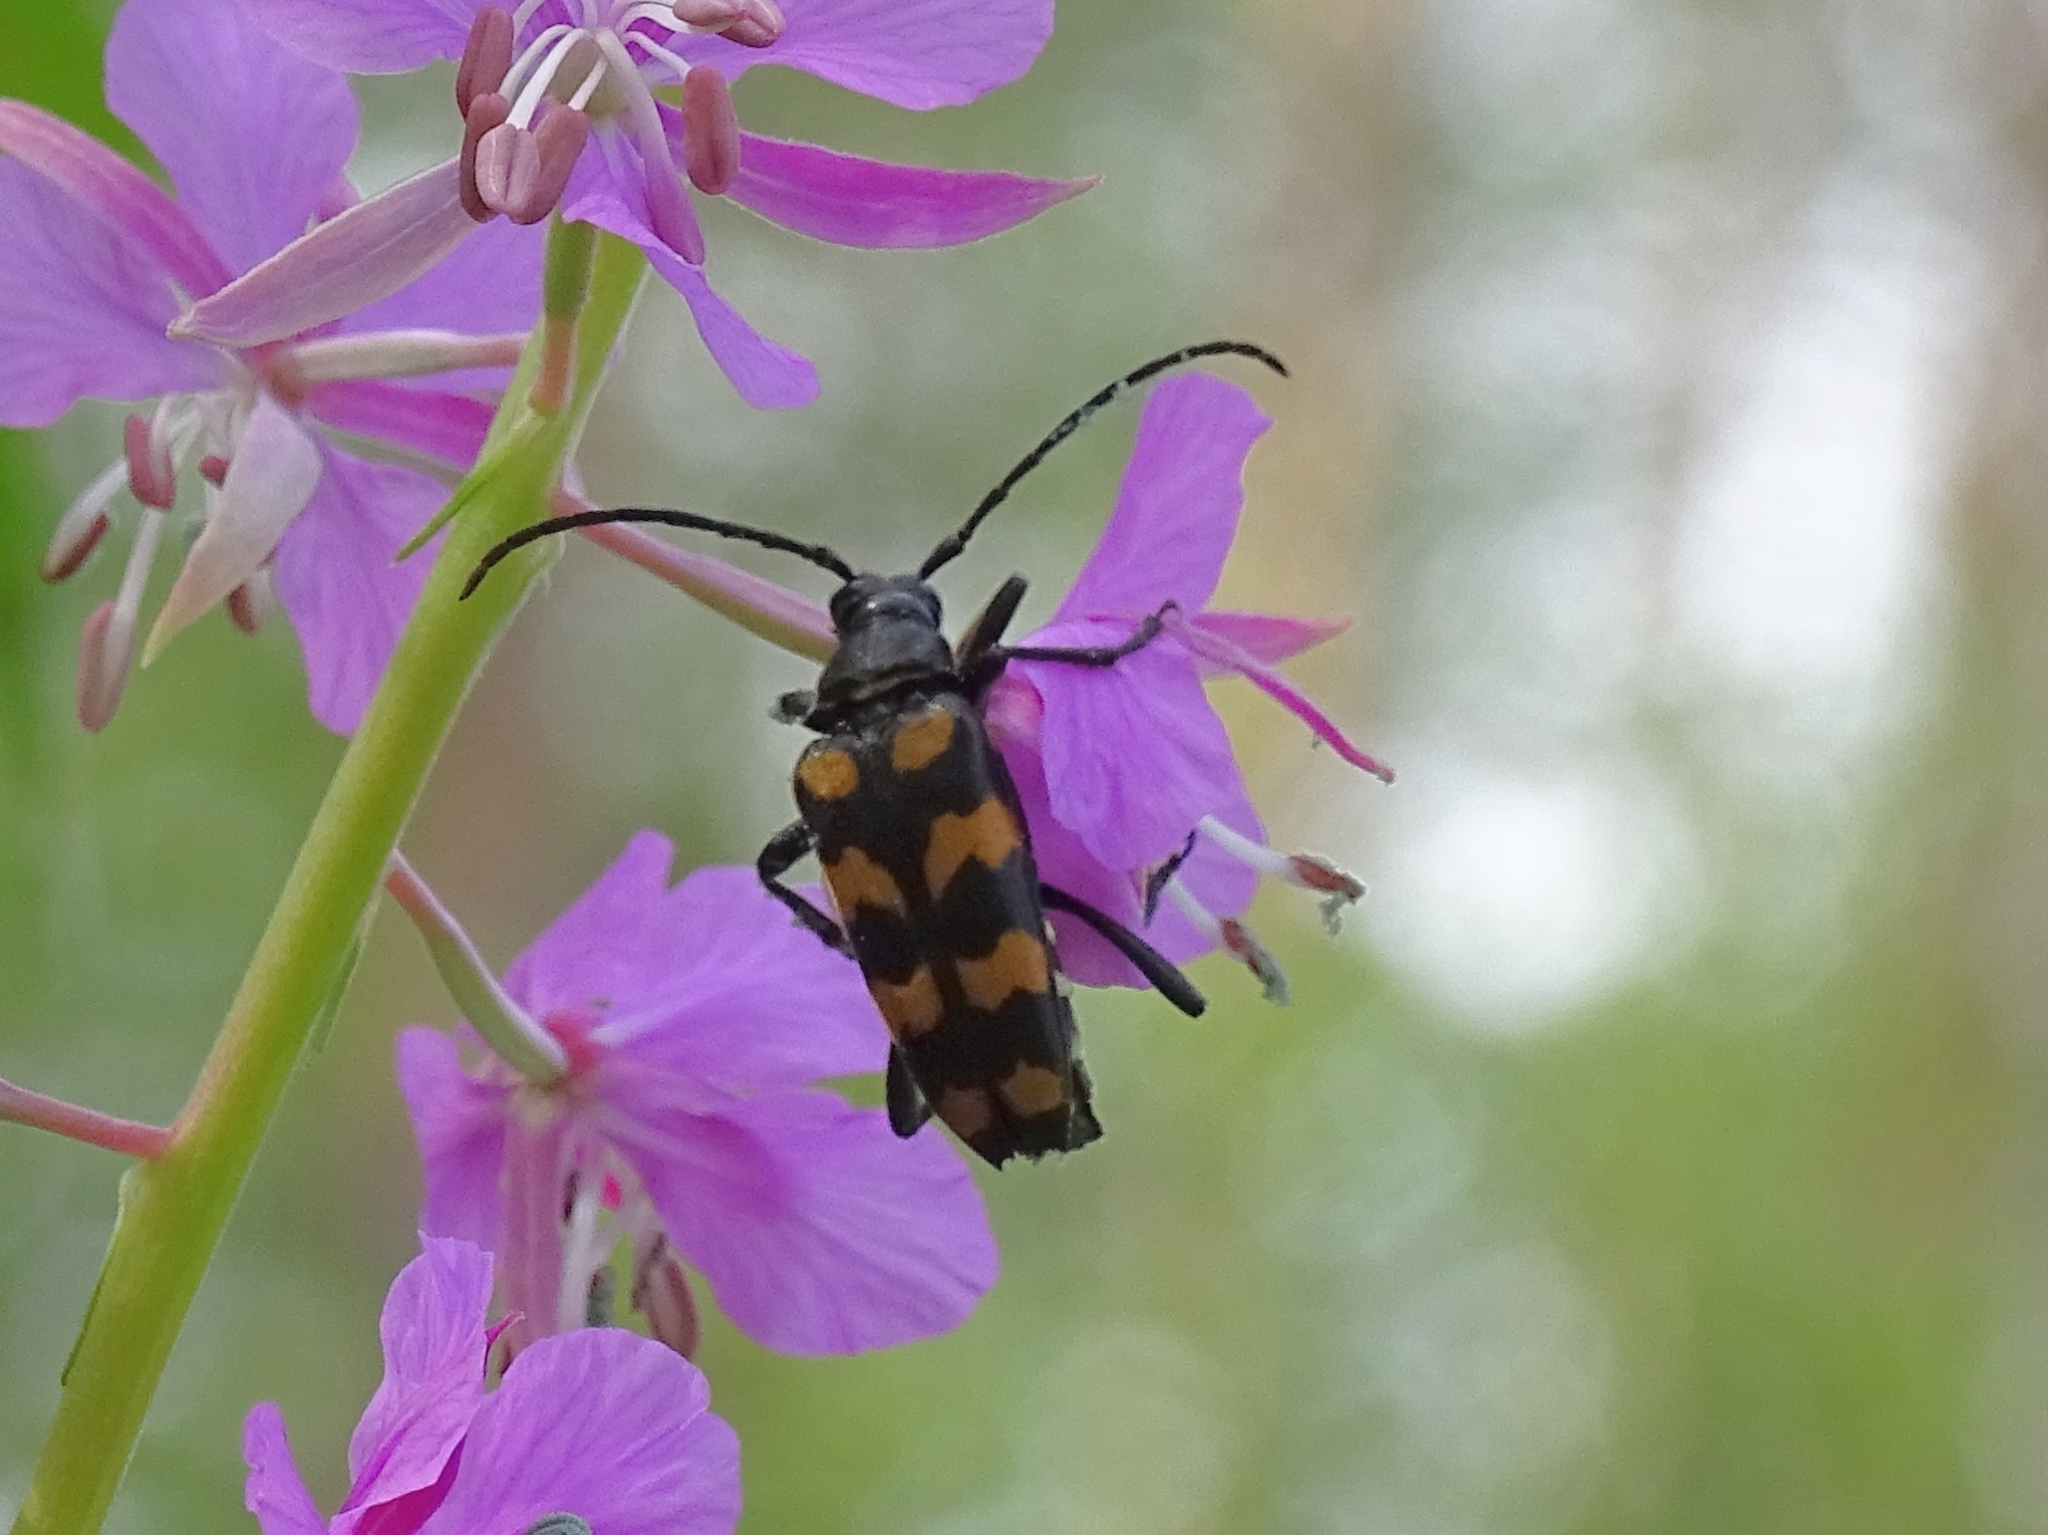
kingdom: Animalia
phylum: Arthropoda
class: Insecta
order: Coleoptera
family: Cerambycidae
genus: Leptura
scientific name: Leptura quadrifasciata
